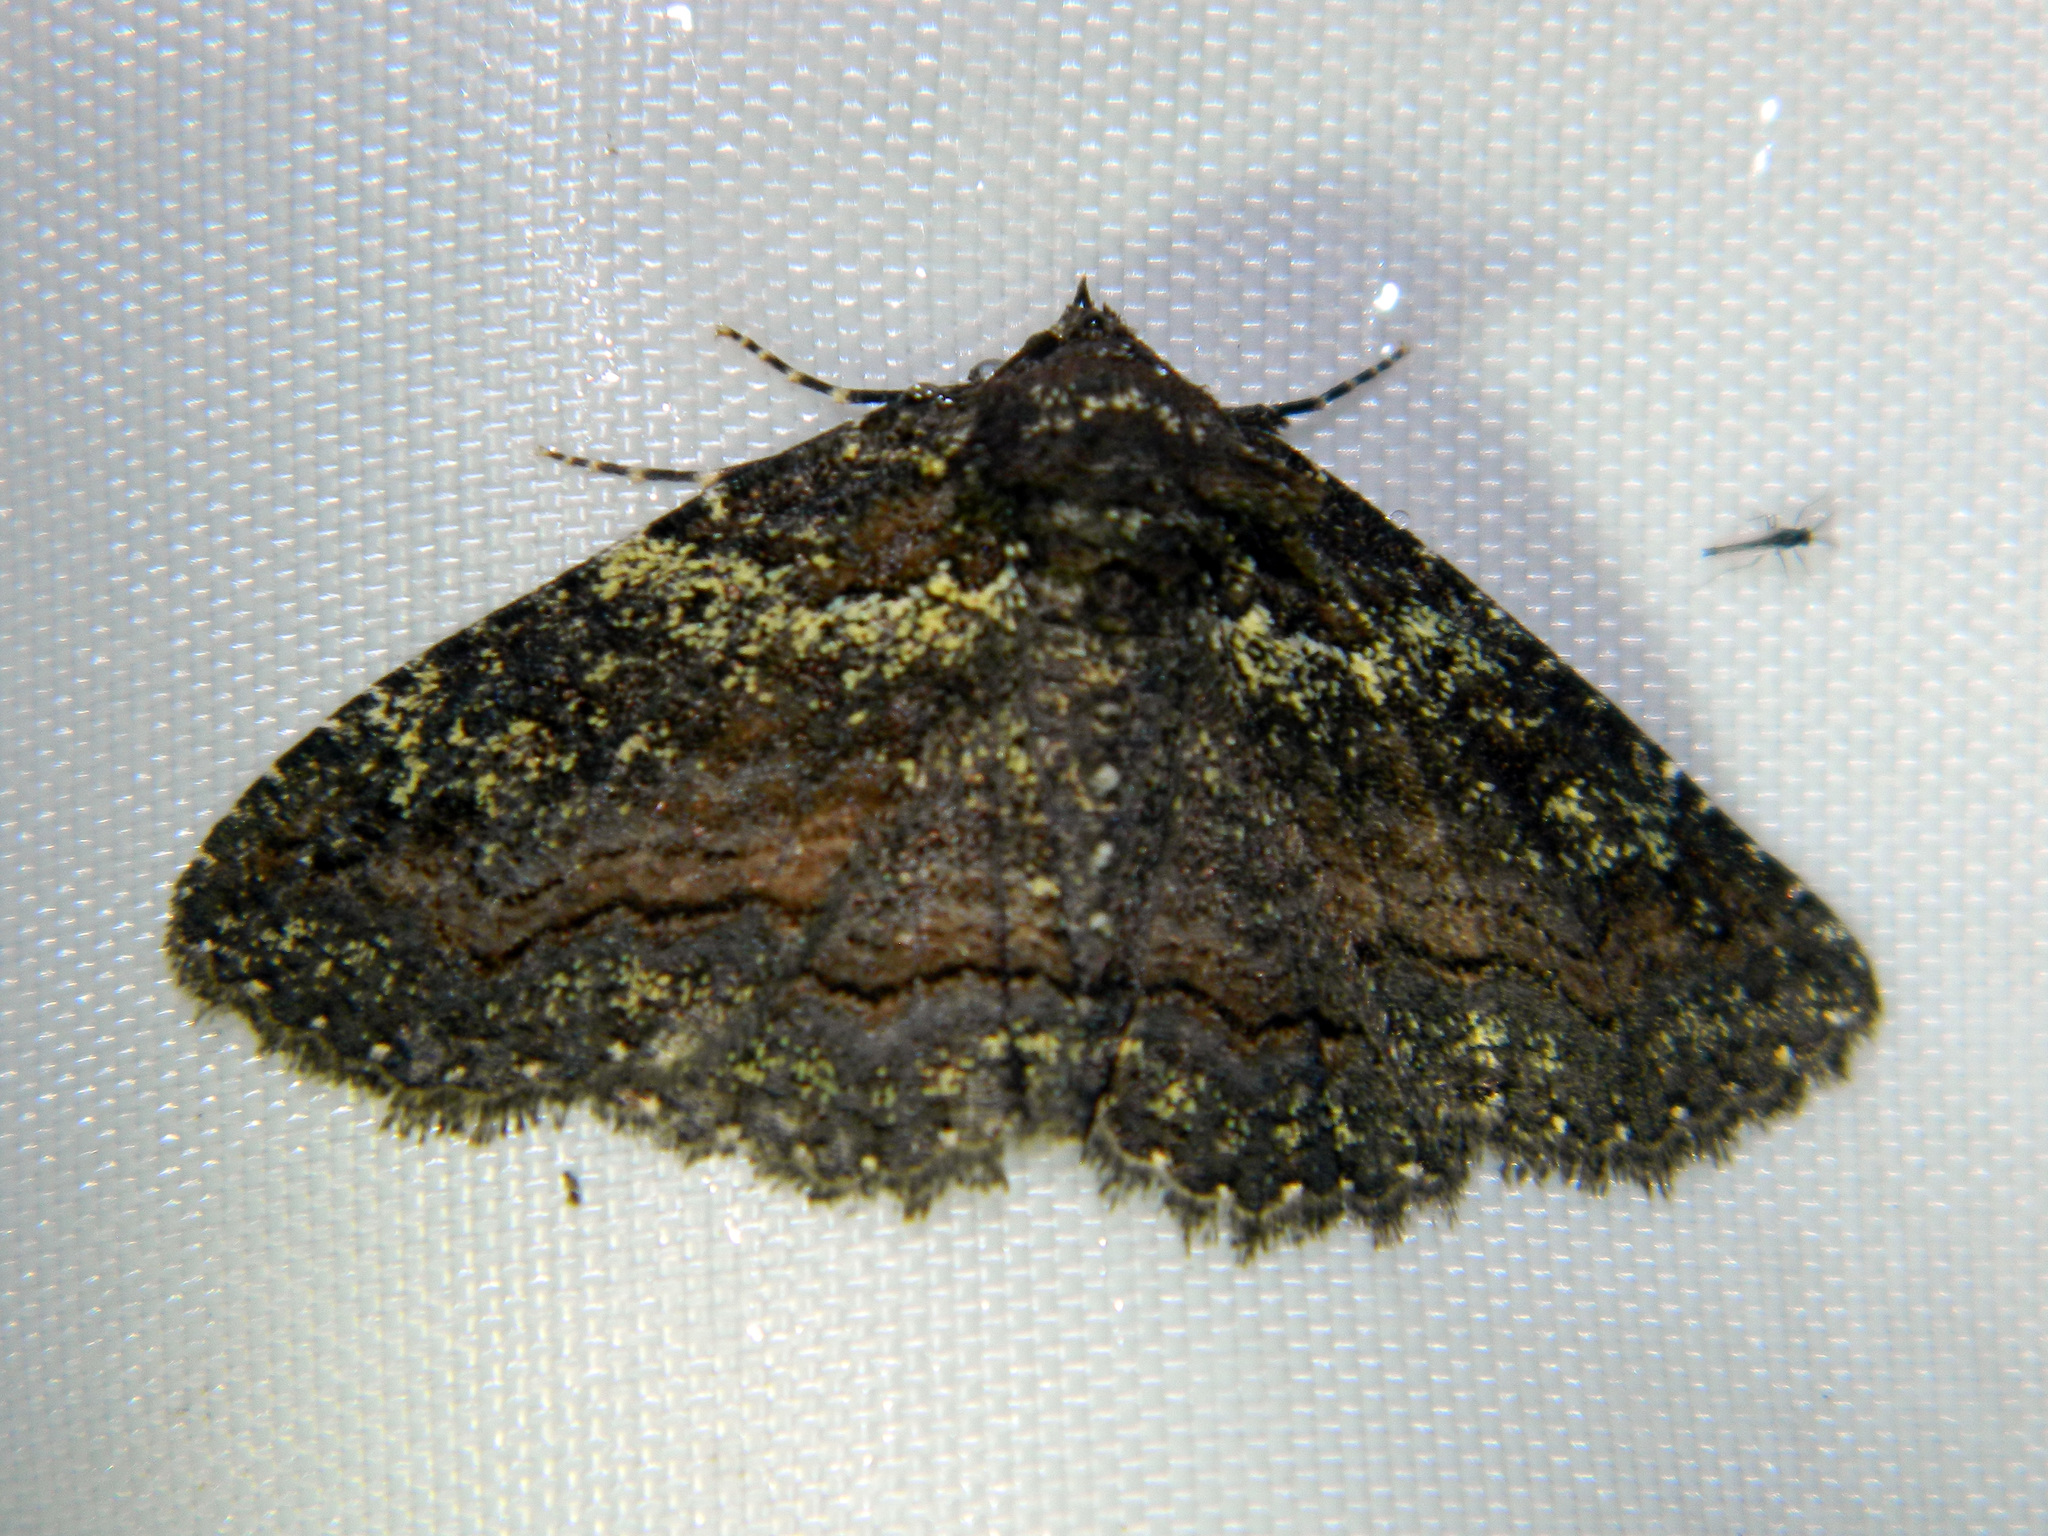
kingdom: Animalia
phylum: Arthropoda
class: Insecta
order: Lepidoptera
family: Erebidae
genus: Zale
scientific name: Zale aeruginosa
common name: Green-dusted zale moth
